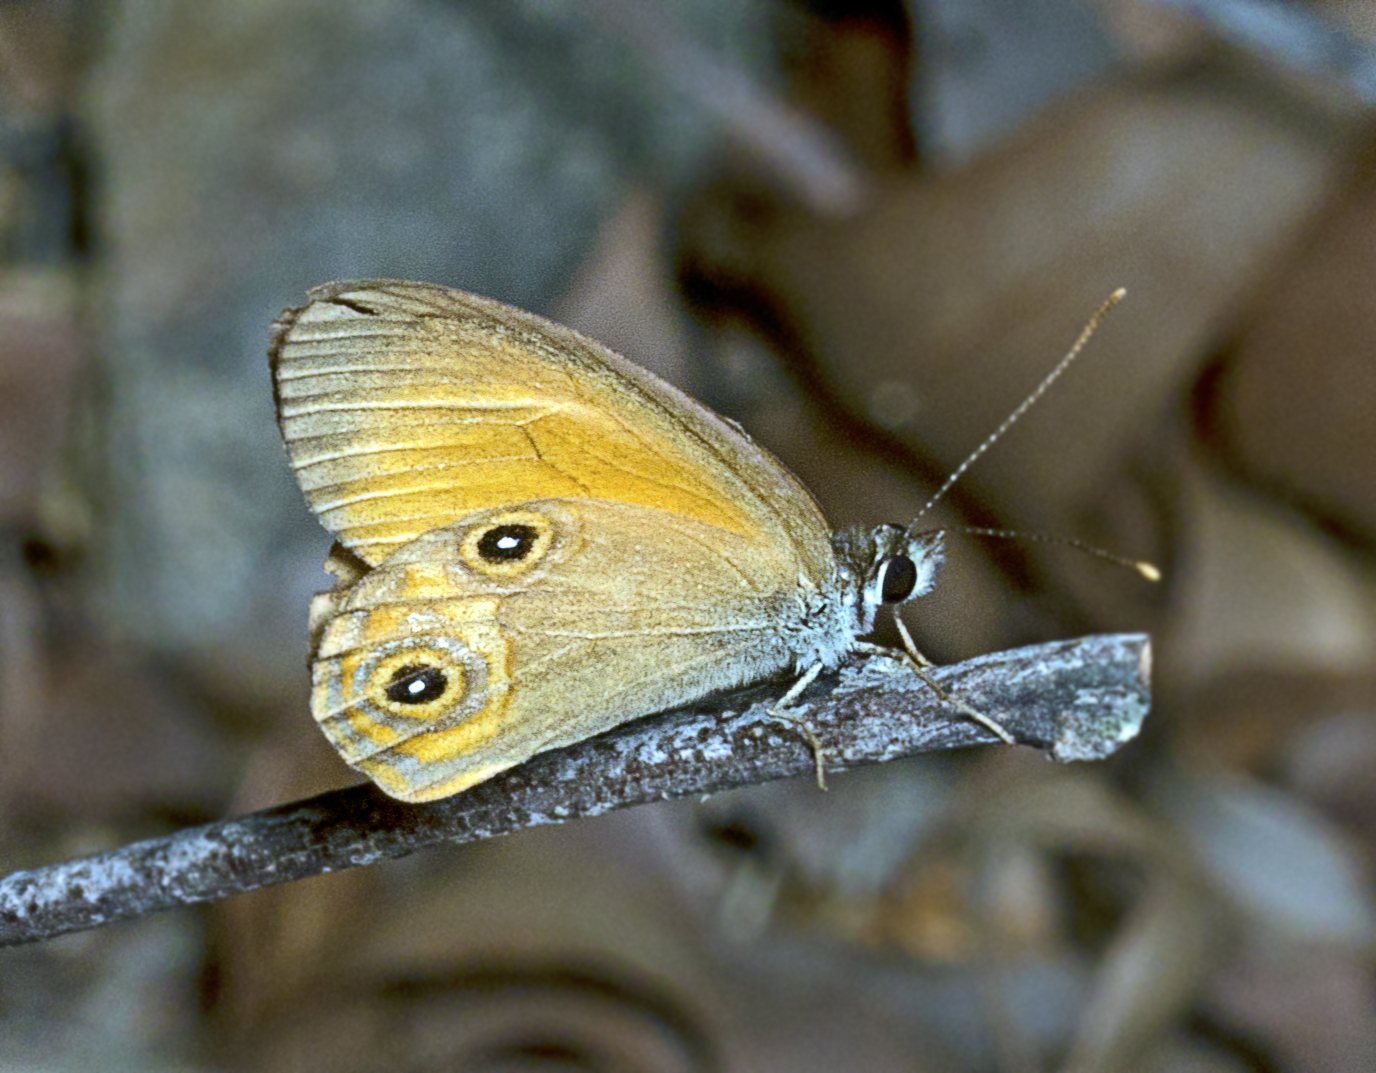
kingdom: Animalia
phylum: Arthropoda
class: Insecta
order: Lepidoptera
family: Nymphalidae
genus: Hypocysta
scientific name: Hypocysta adiante
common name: Orange ringlet
